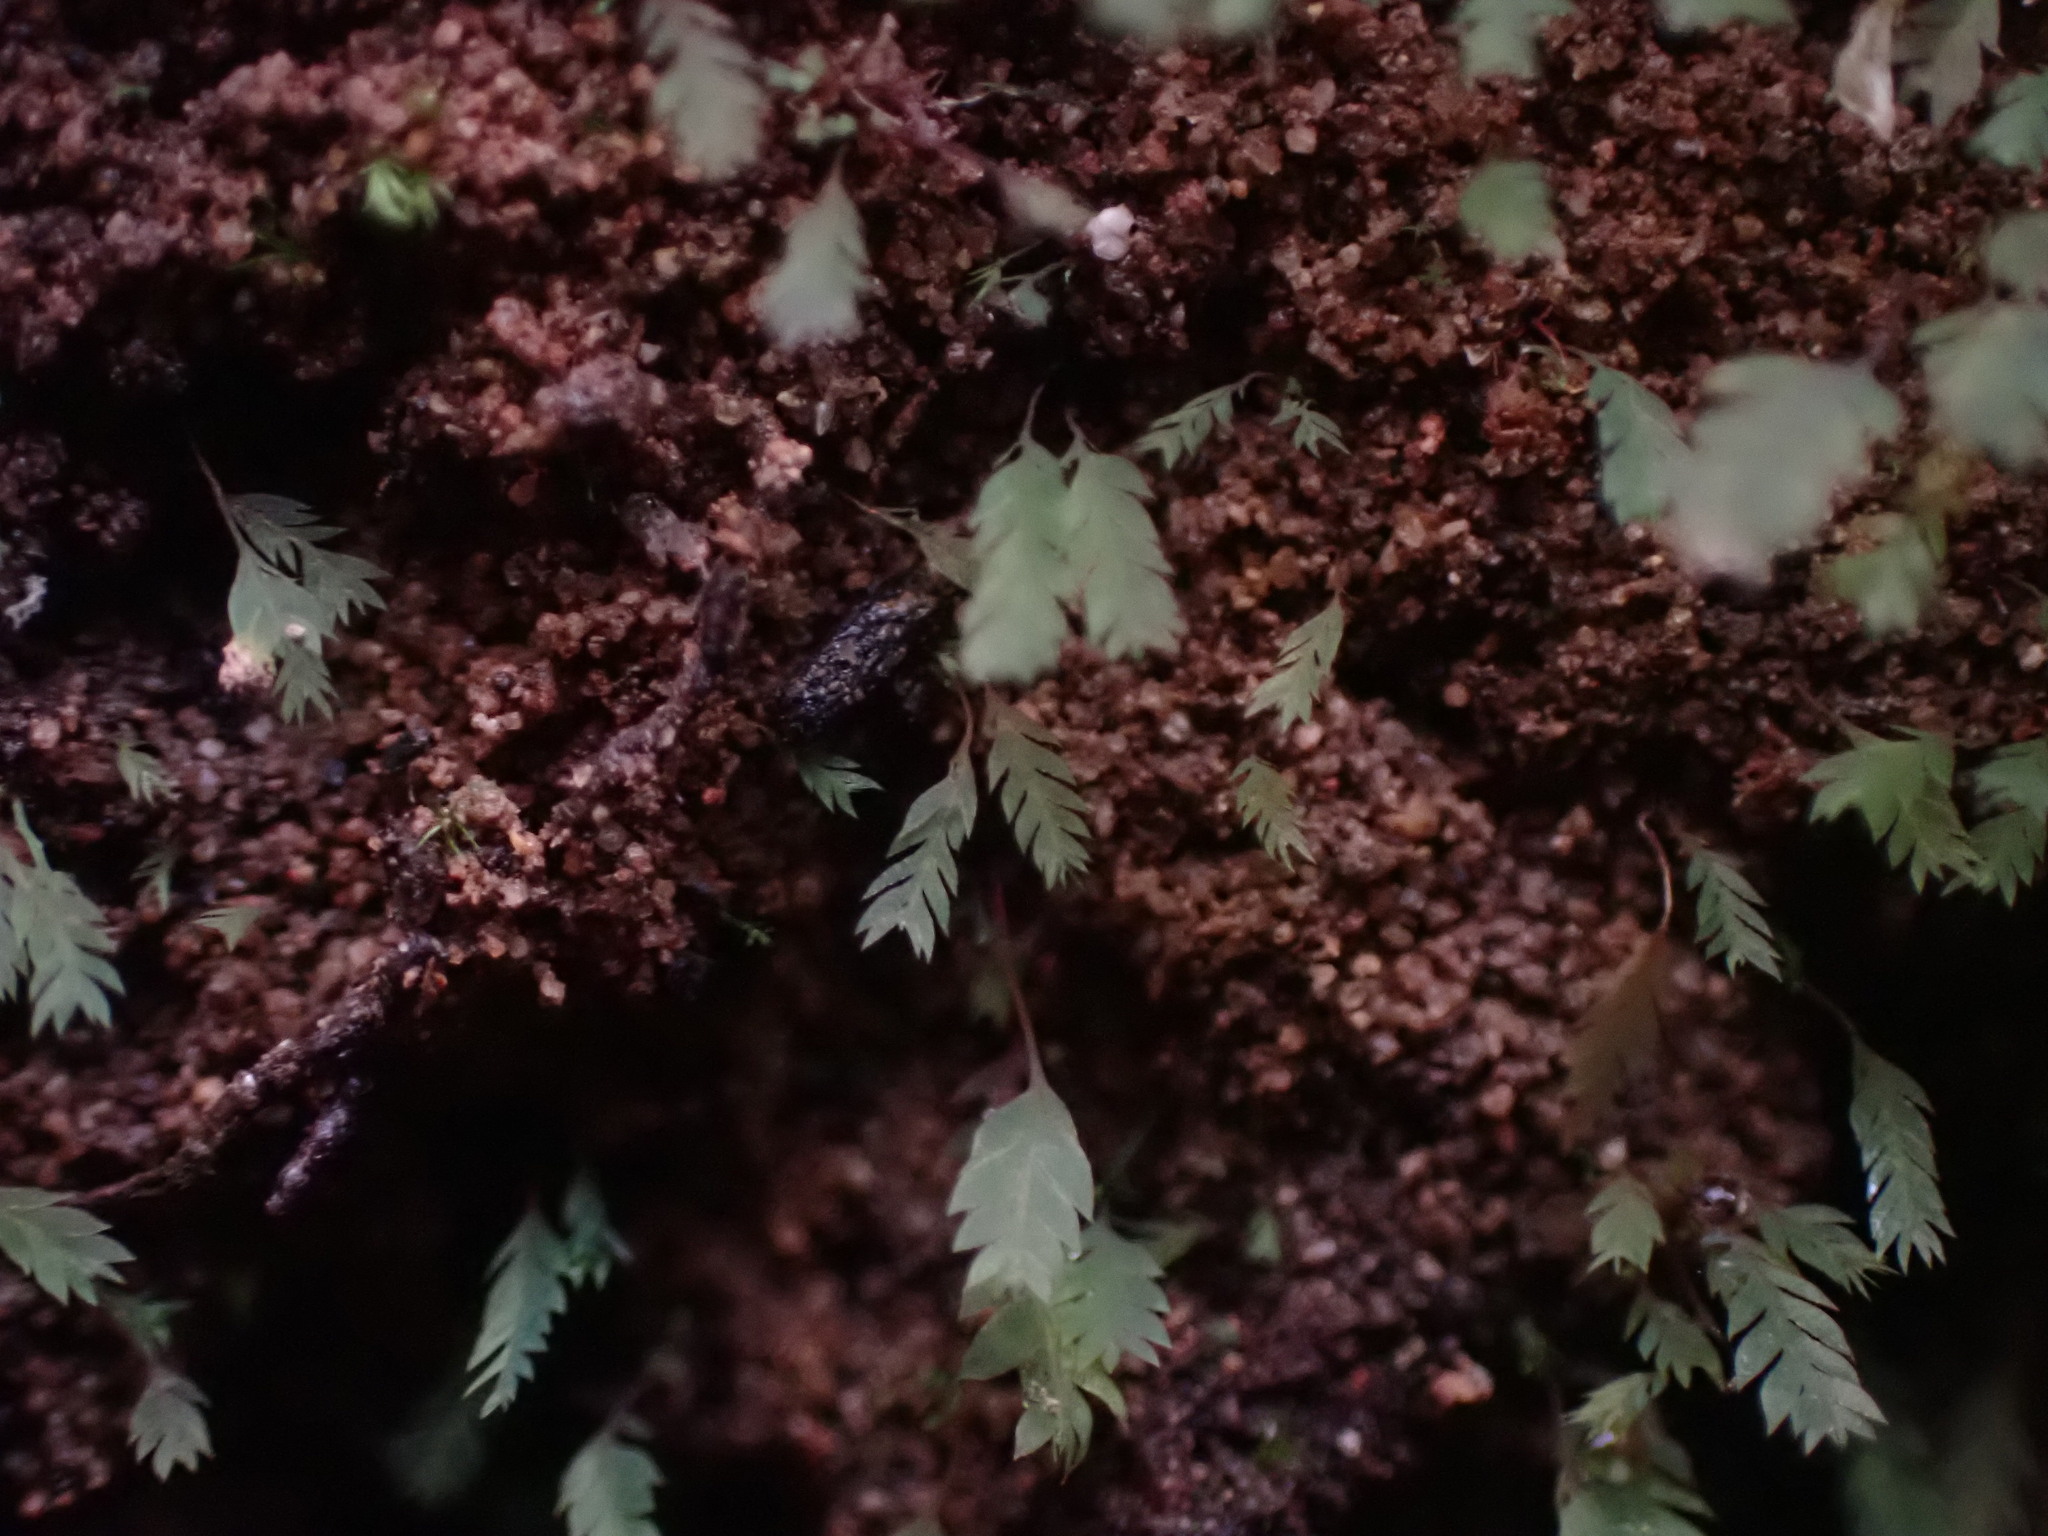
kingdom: Plantae
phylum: Bryophyta
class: Bryopsida
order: Dicranales
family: Schistostegaceae
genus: Schistostega
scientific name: Schistostega pennata
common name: Luminous moss
